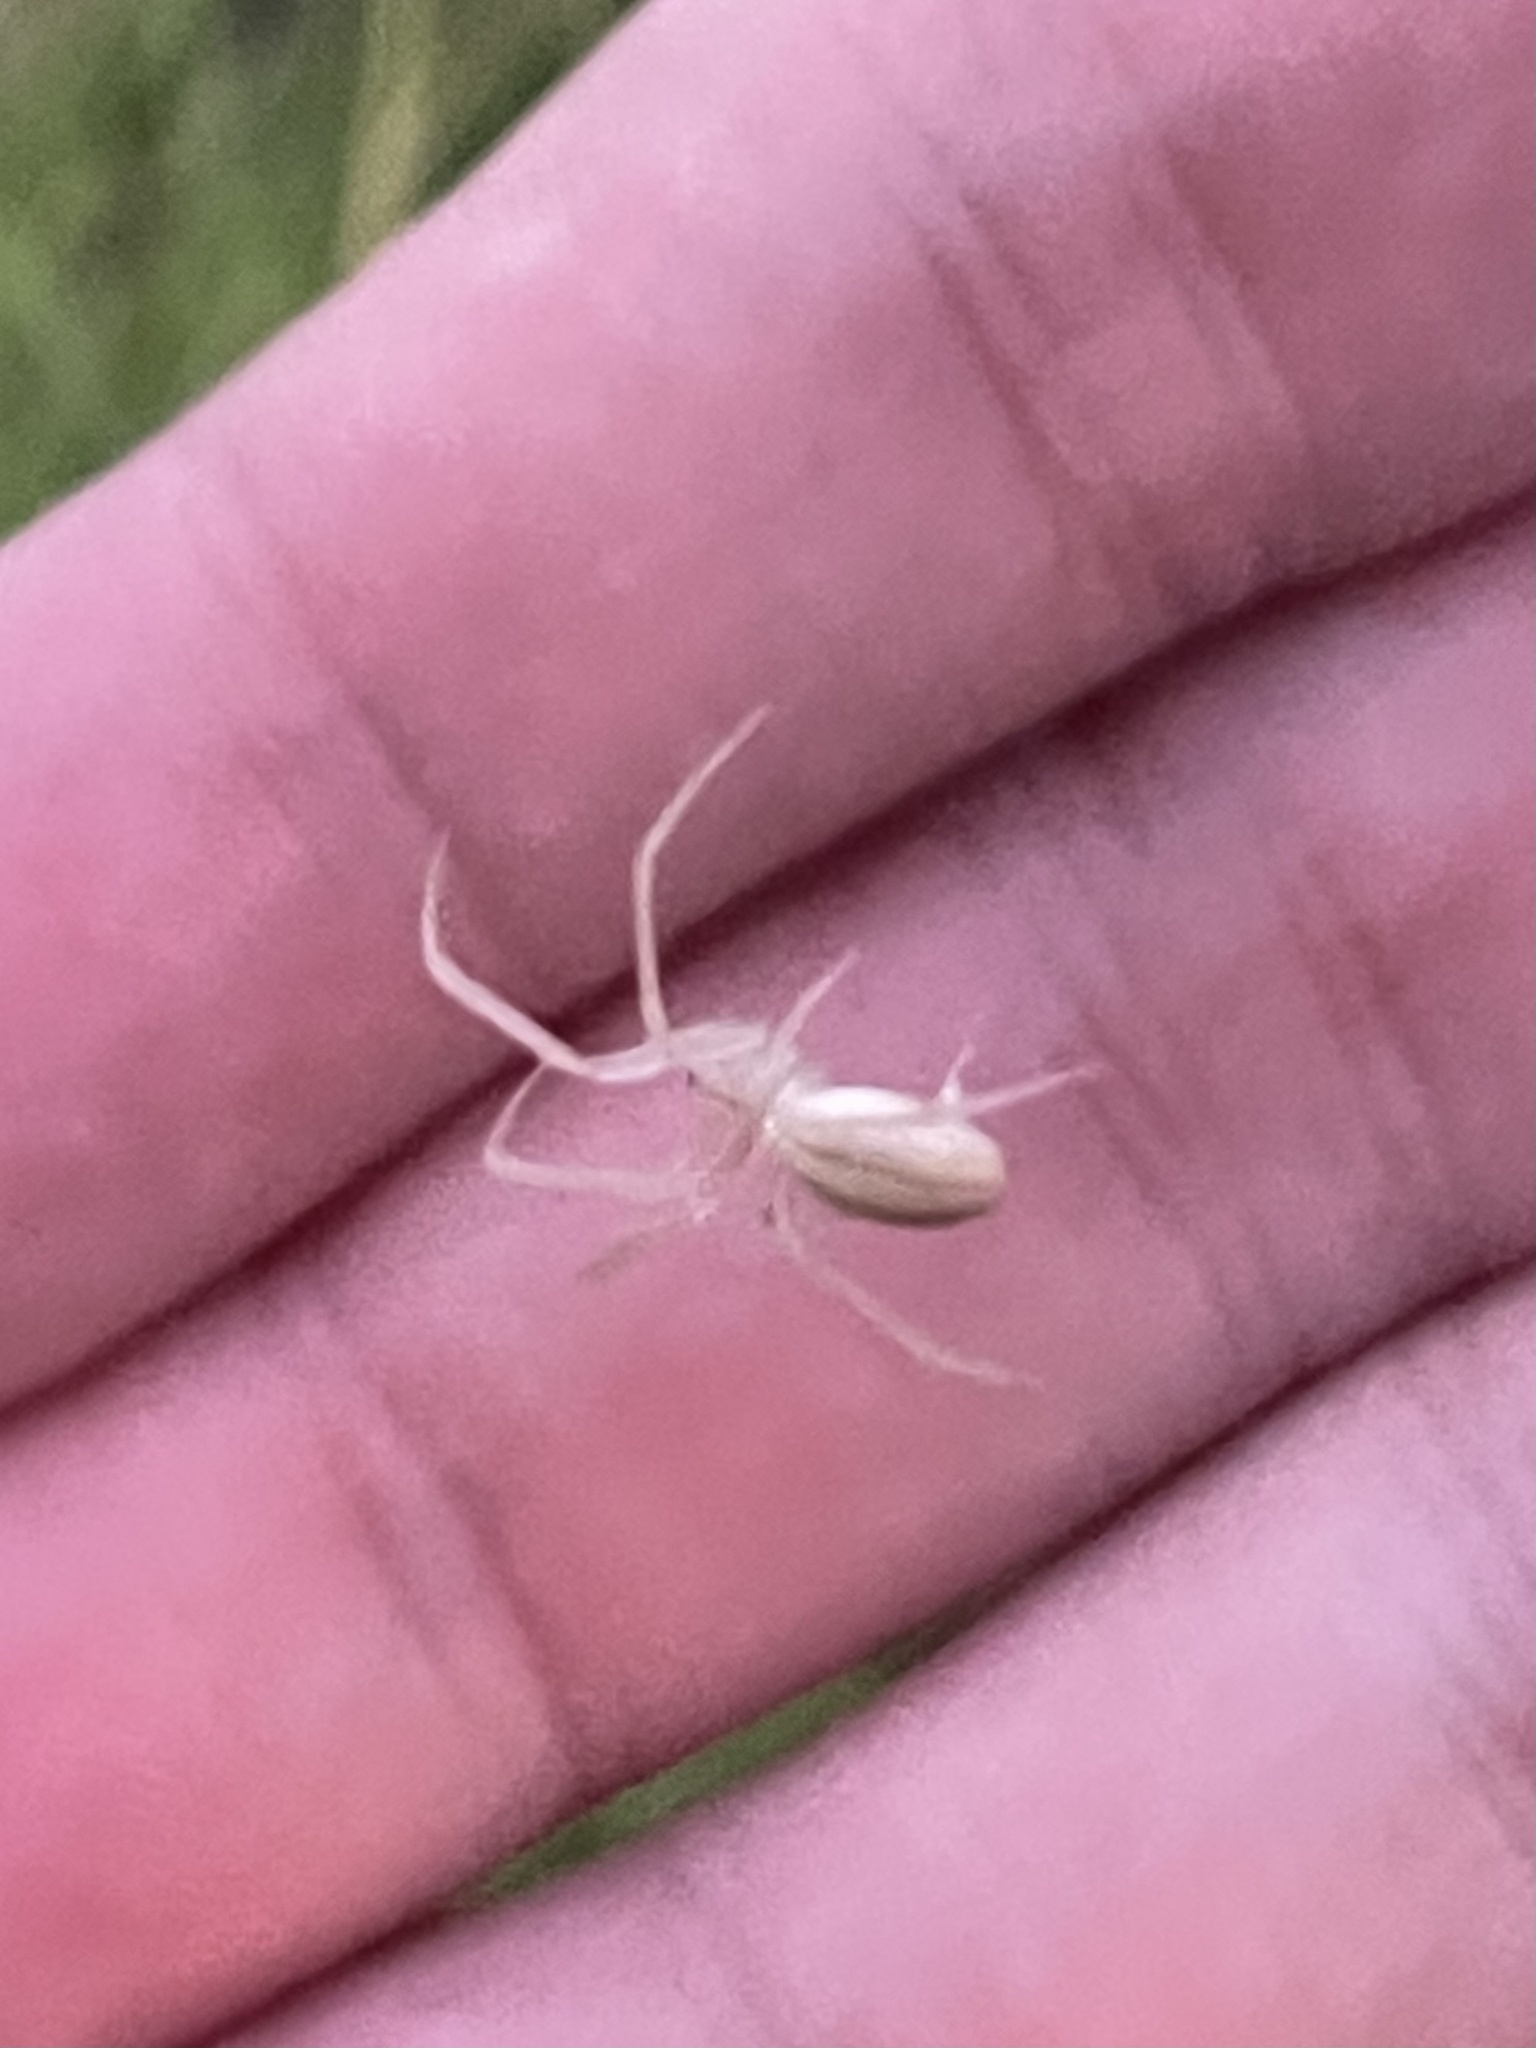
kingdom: Animalia
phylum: Arthropoda
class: Arachnida
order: Araneae
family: Araneidae
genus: Larinia
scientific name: Larinia directa
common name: Orb weavers
